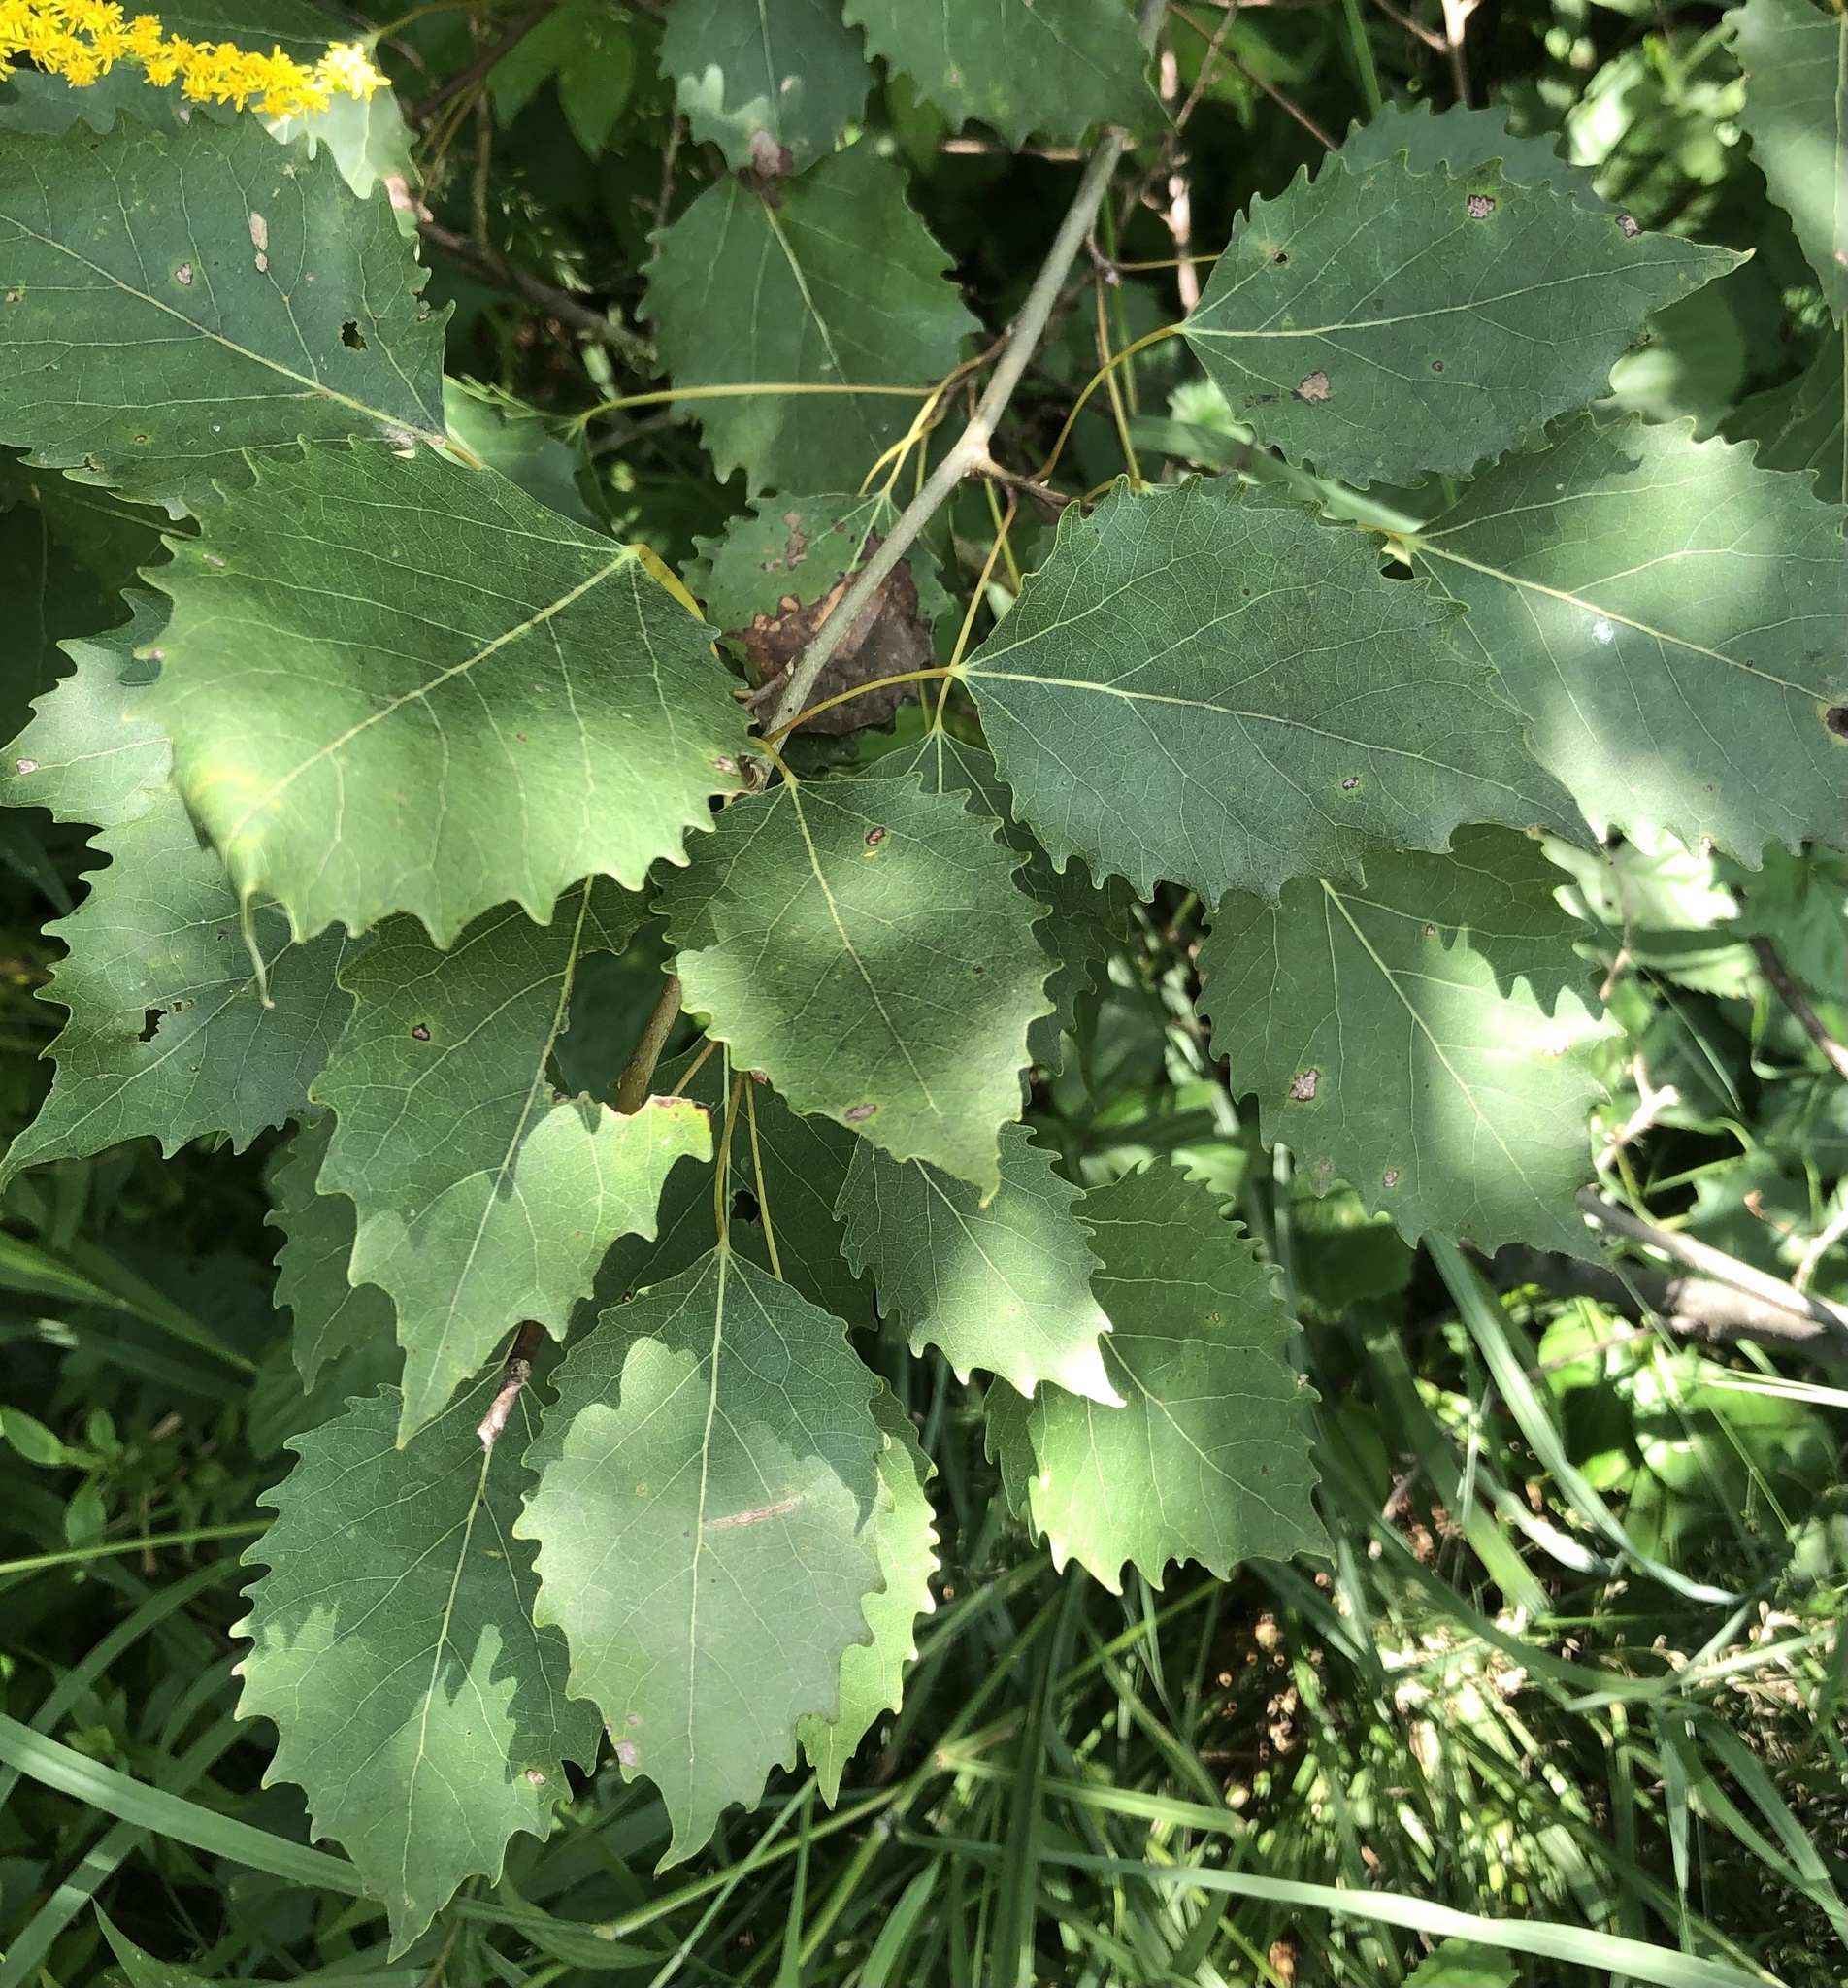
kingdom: Plantae
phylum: Tracheophyta
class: Magnoliopsida
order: Malpighiales
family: Salicaceae
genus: Populus
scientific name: Populus grandidentata
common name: Bigtooth aspen
